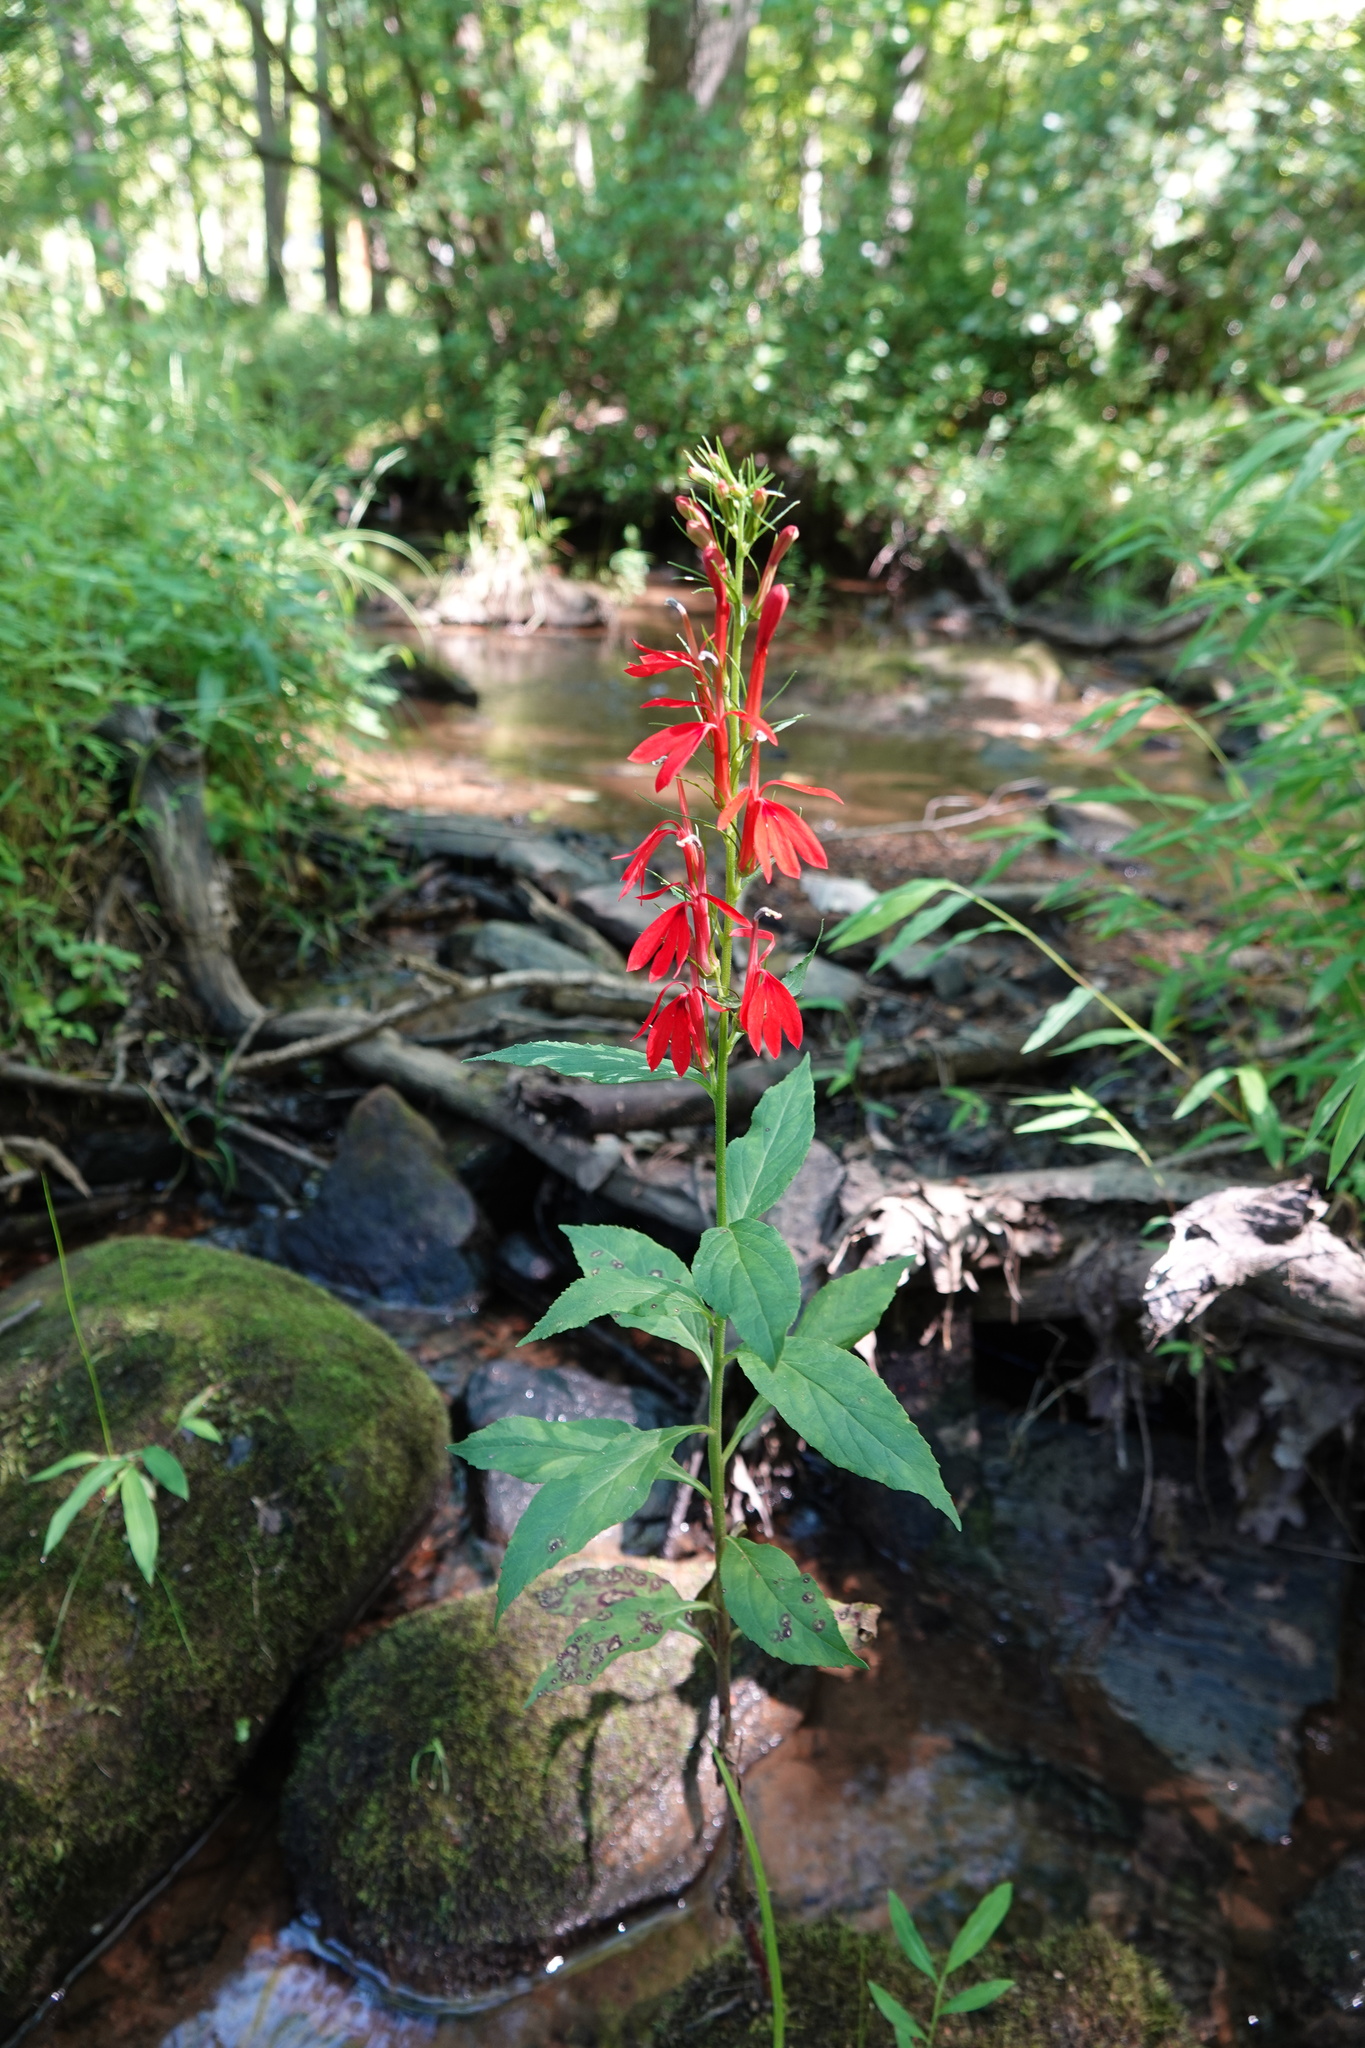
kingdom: Plantae
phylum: Tracheophyta
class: Magnoliopsida
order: Asterales
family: Campanulaceae
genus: Lobelia
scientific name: Lobelia cardinalis
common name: Cardinal flower
